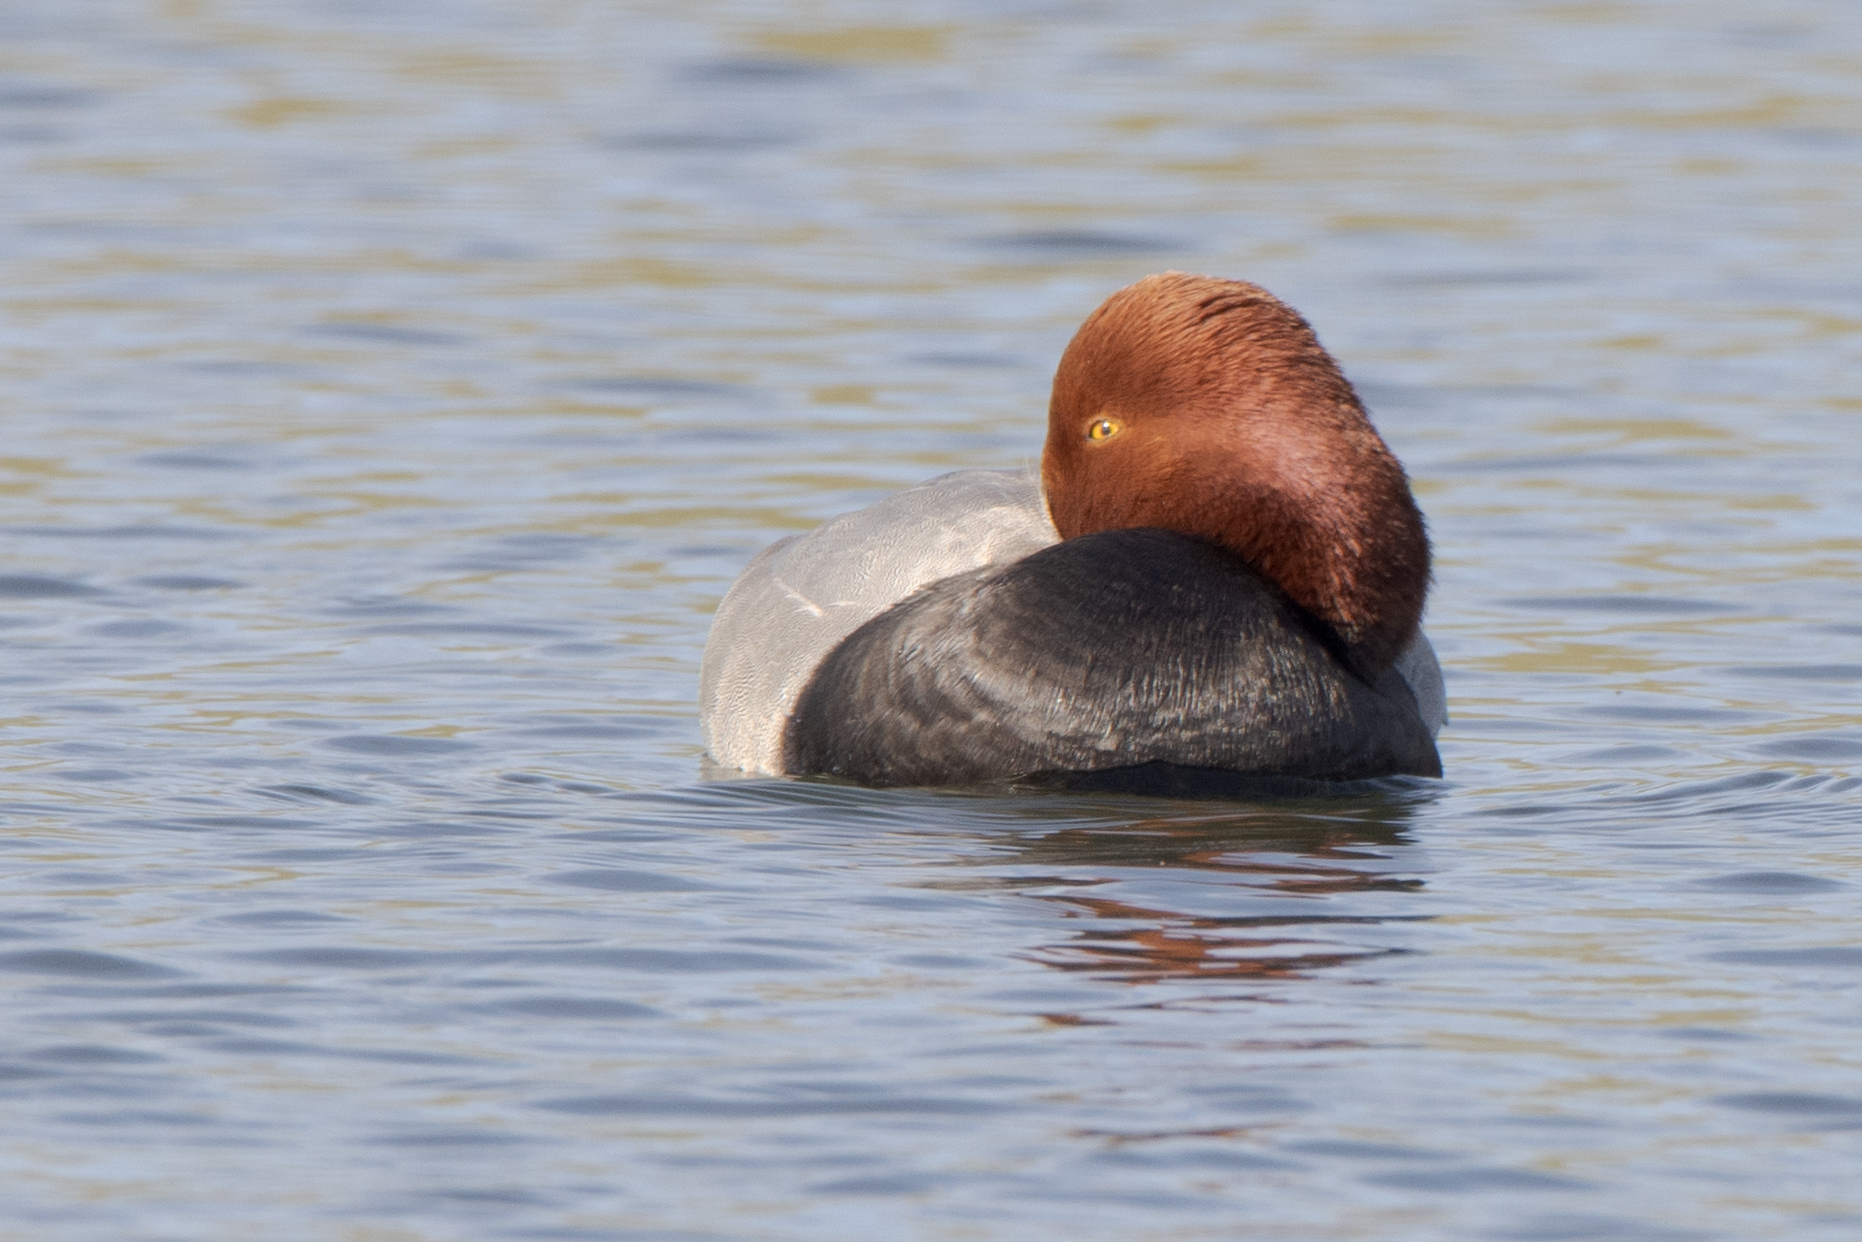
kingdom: Animalia
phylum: Chordata
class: Aves
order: Anseriformes
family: Anatidae
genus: Aythya
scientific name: Aythya americana
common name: Redhead
